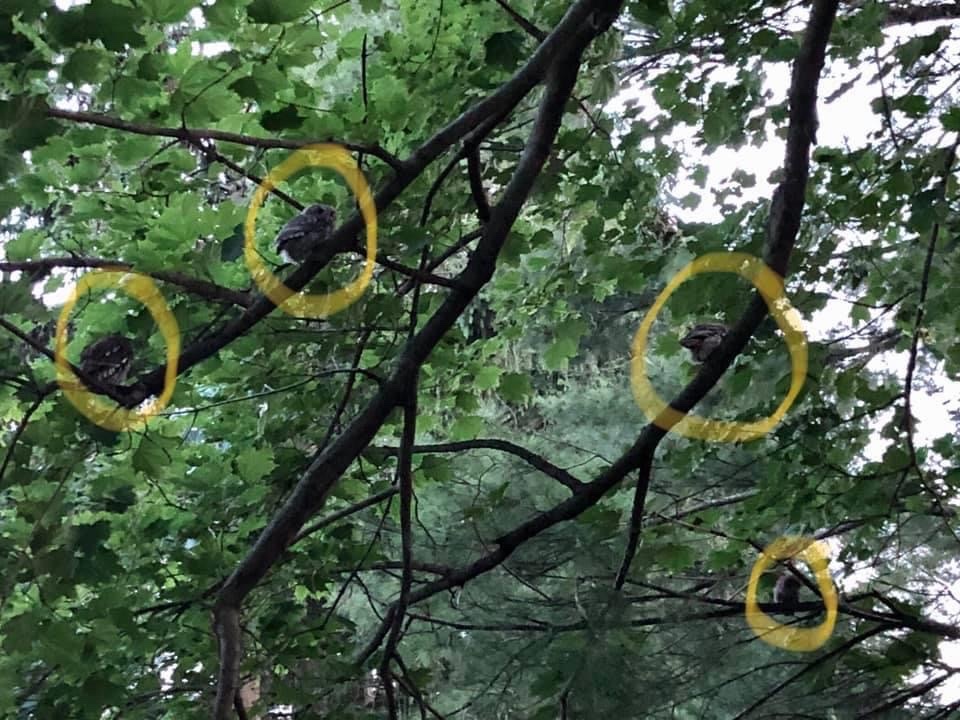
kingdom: Animalia
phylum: Chordata
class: Aves
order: Strigiformes
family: Strigidae
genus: Megascops
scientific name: Megascops asio
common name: Eastern screech-owl
